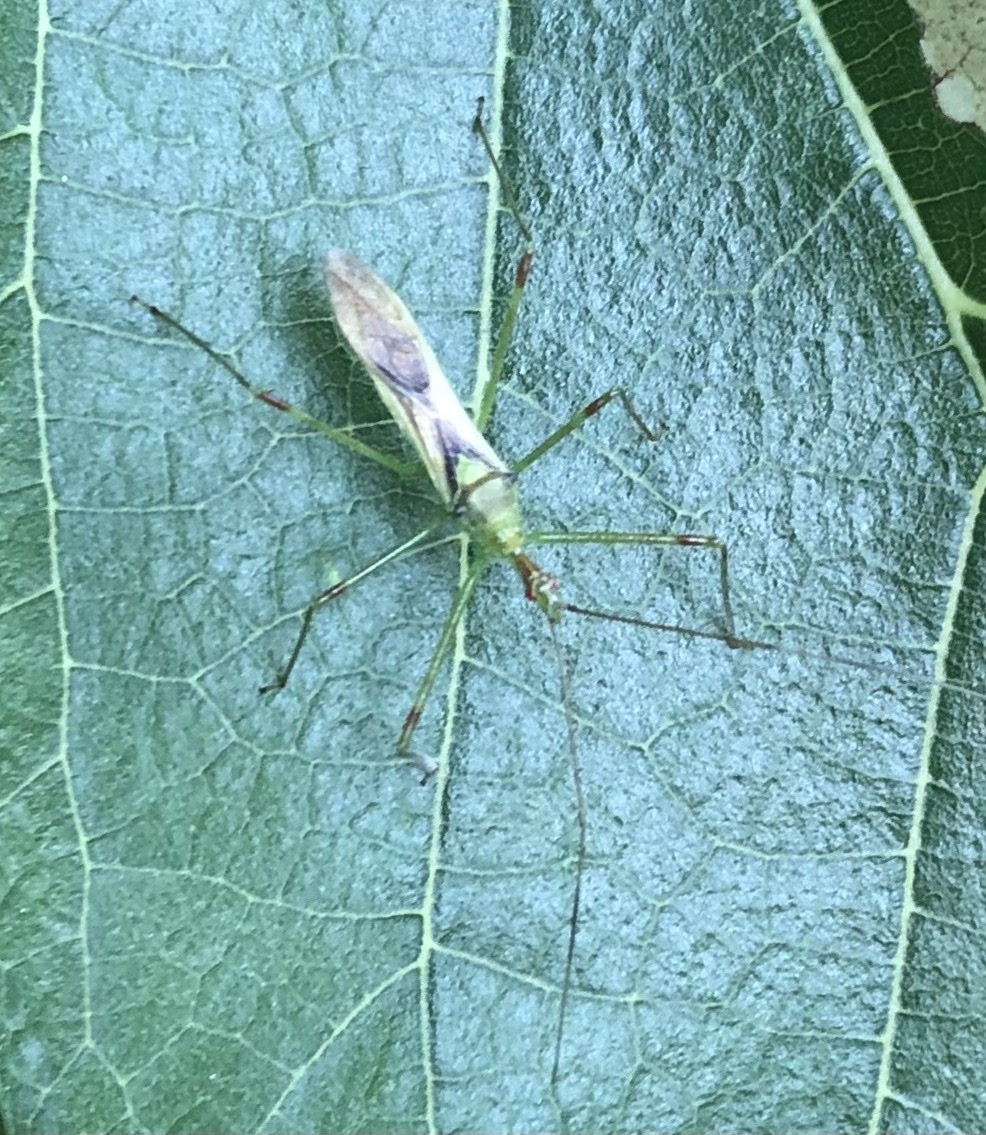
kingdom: Animalia
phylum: Arthropoda
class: Insecta
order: Hemiptera
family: Reduviidae
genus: Zelus
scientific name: Zelus luridus
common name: Pale green assassin bug
